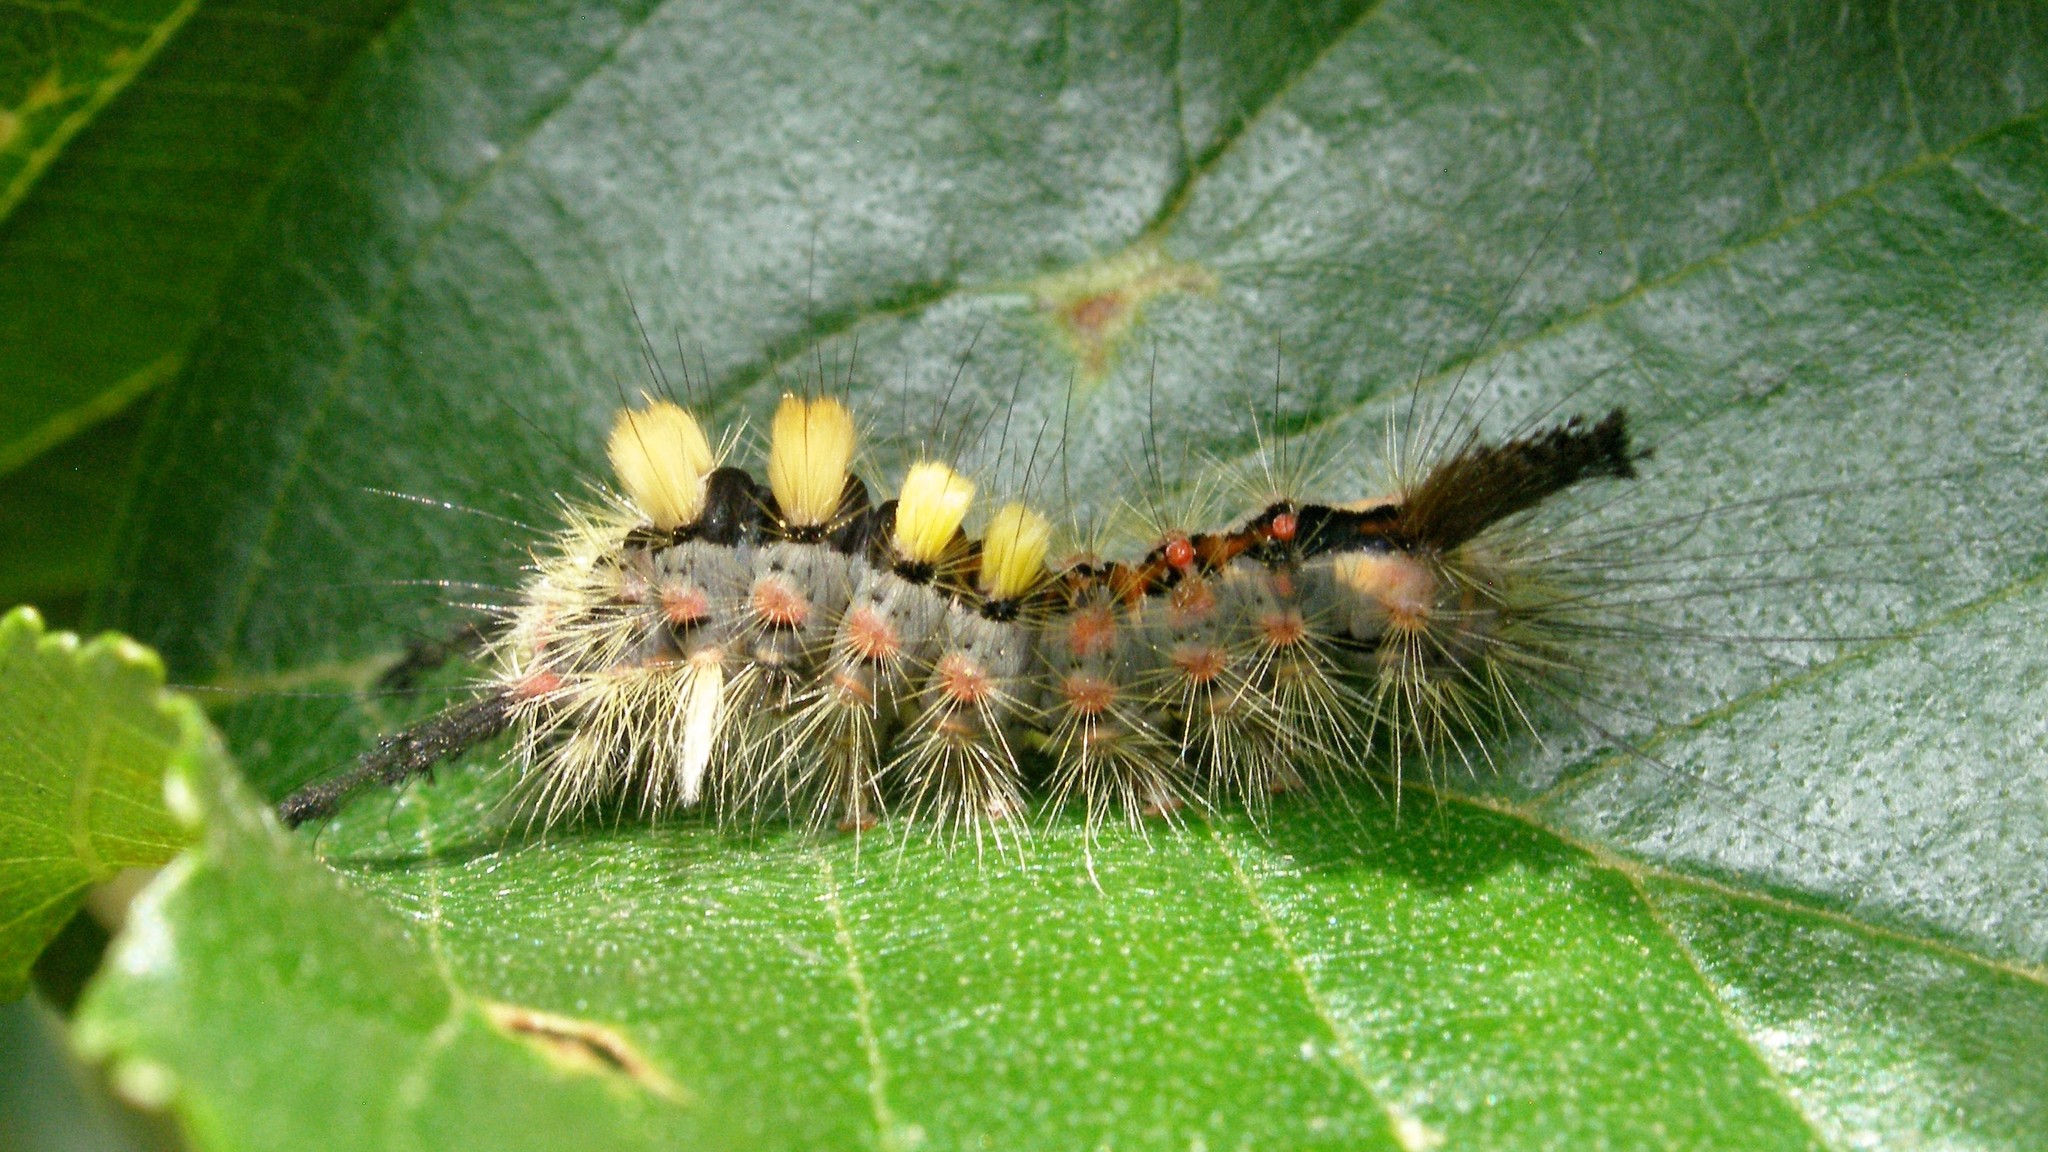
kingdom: Animalia
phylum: Arthropoda
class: Insecta
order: Lepidoptera
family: Erebidae
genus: Orgyia
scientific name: Orgyia antiqua
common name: Vapourer
